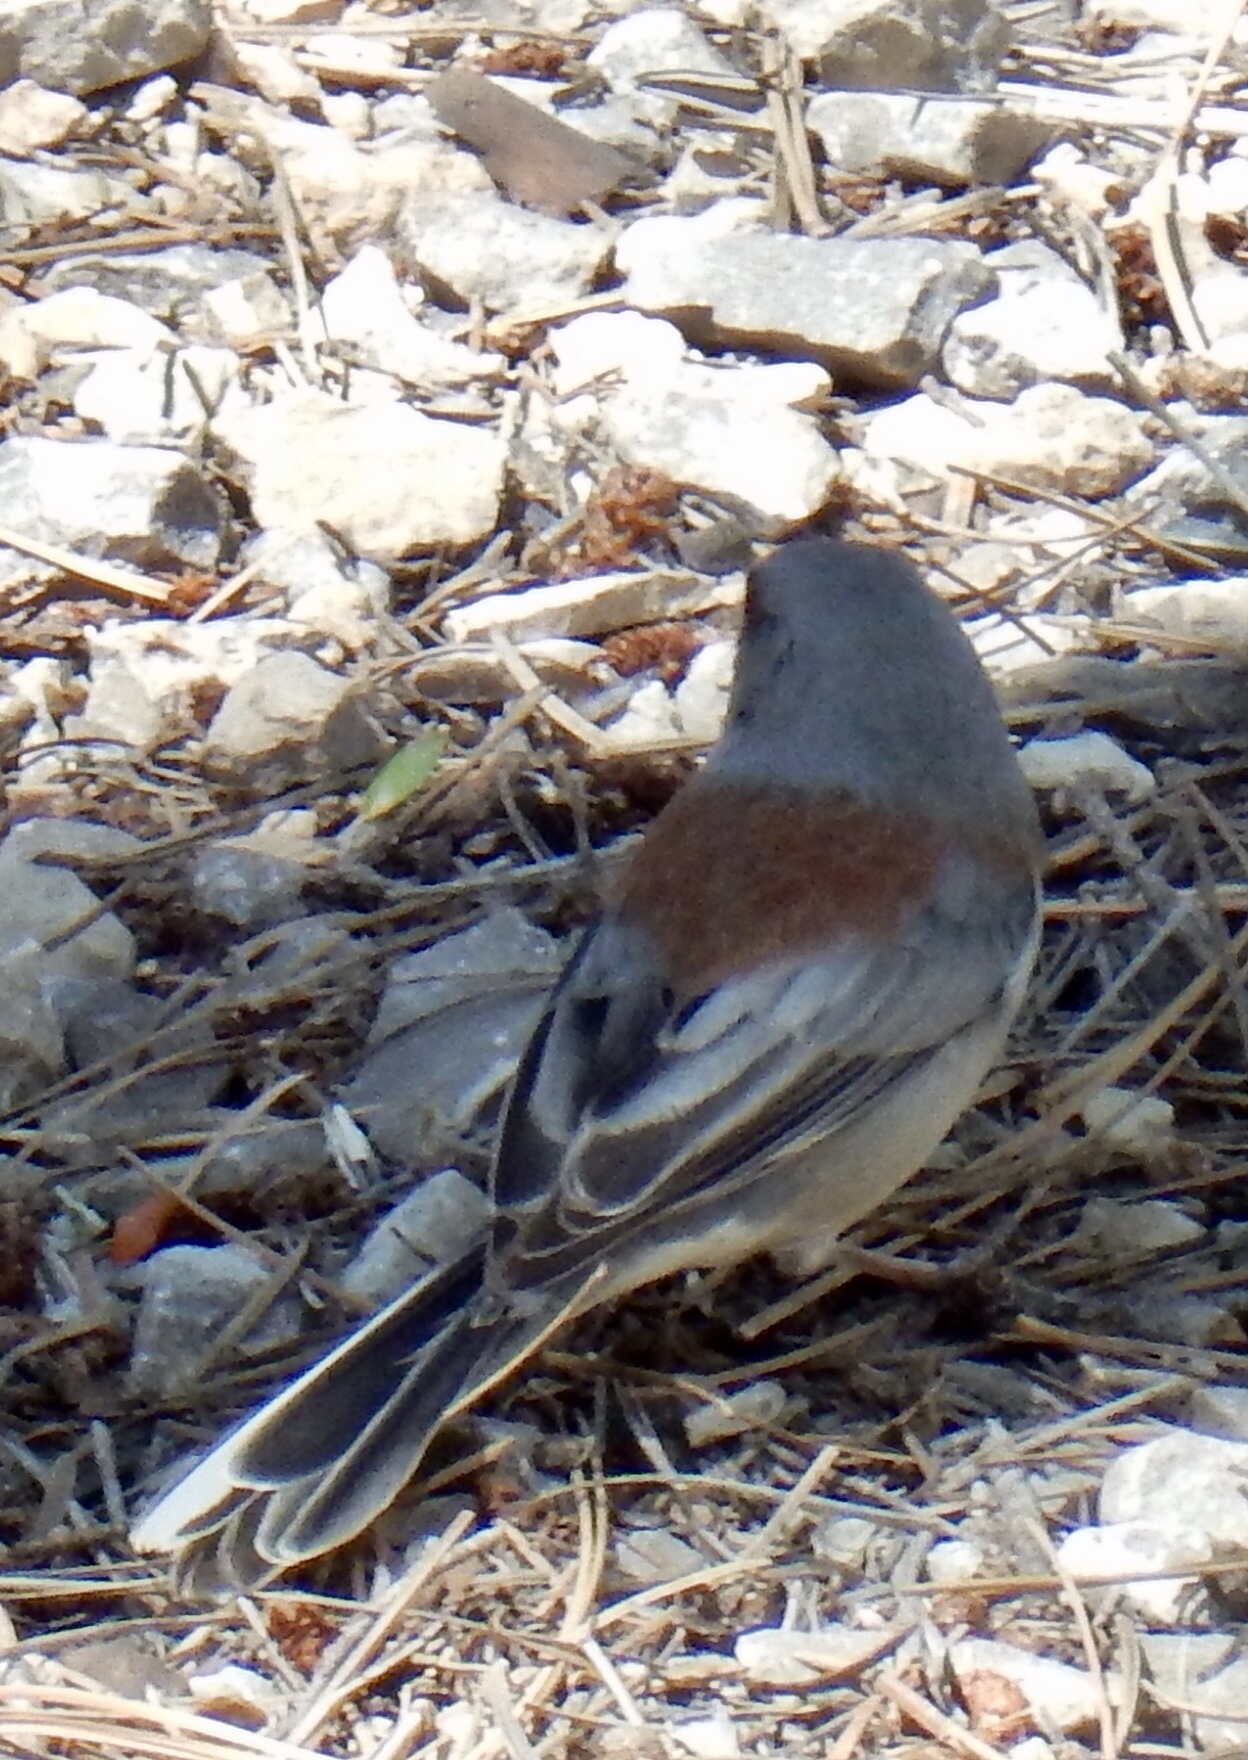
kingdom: Animalia
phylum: Chordata
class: Aves
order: Passeriformes
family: Passerellidae
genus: Junco
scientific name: Junco hyemalis
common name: Dark-eyed junco
